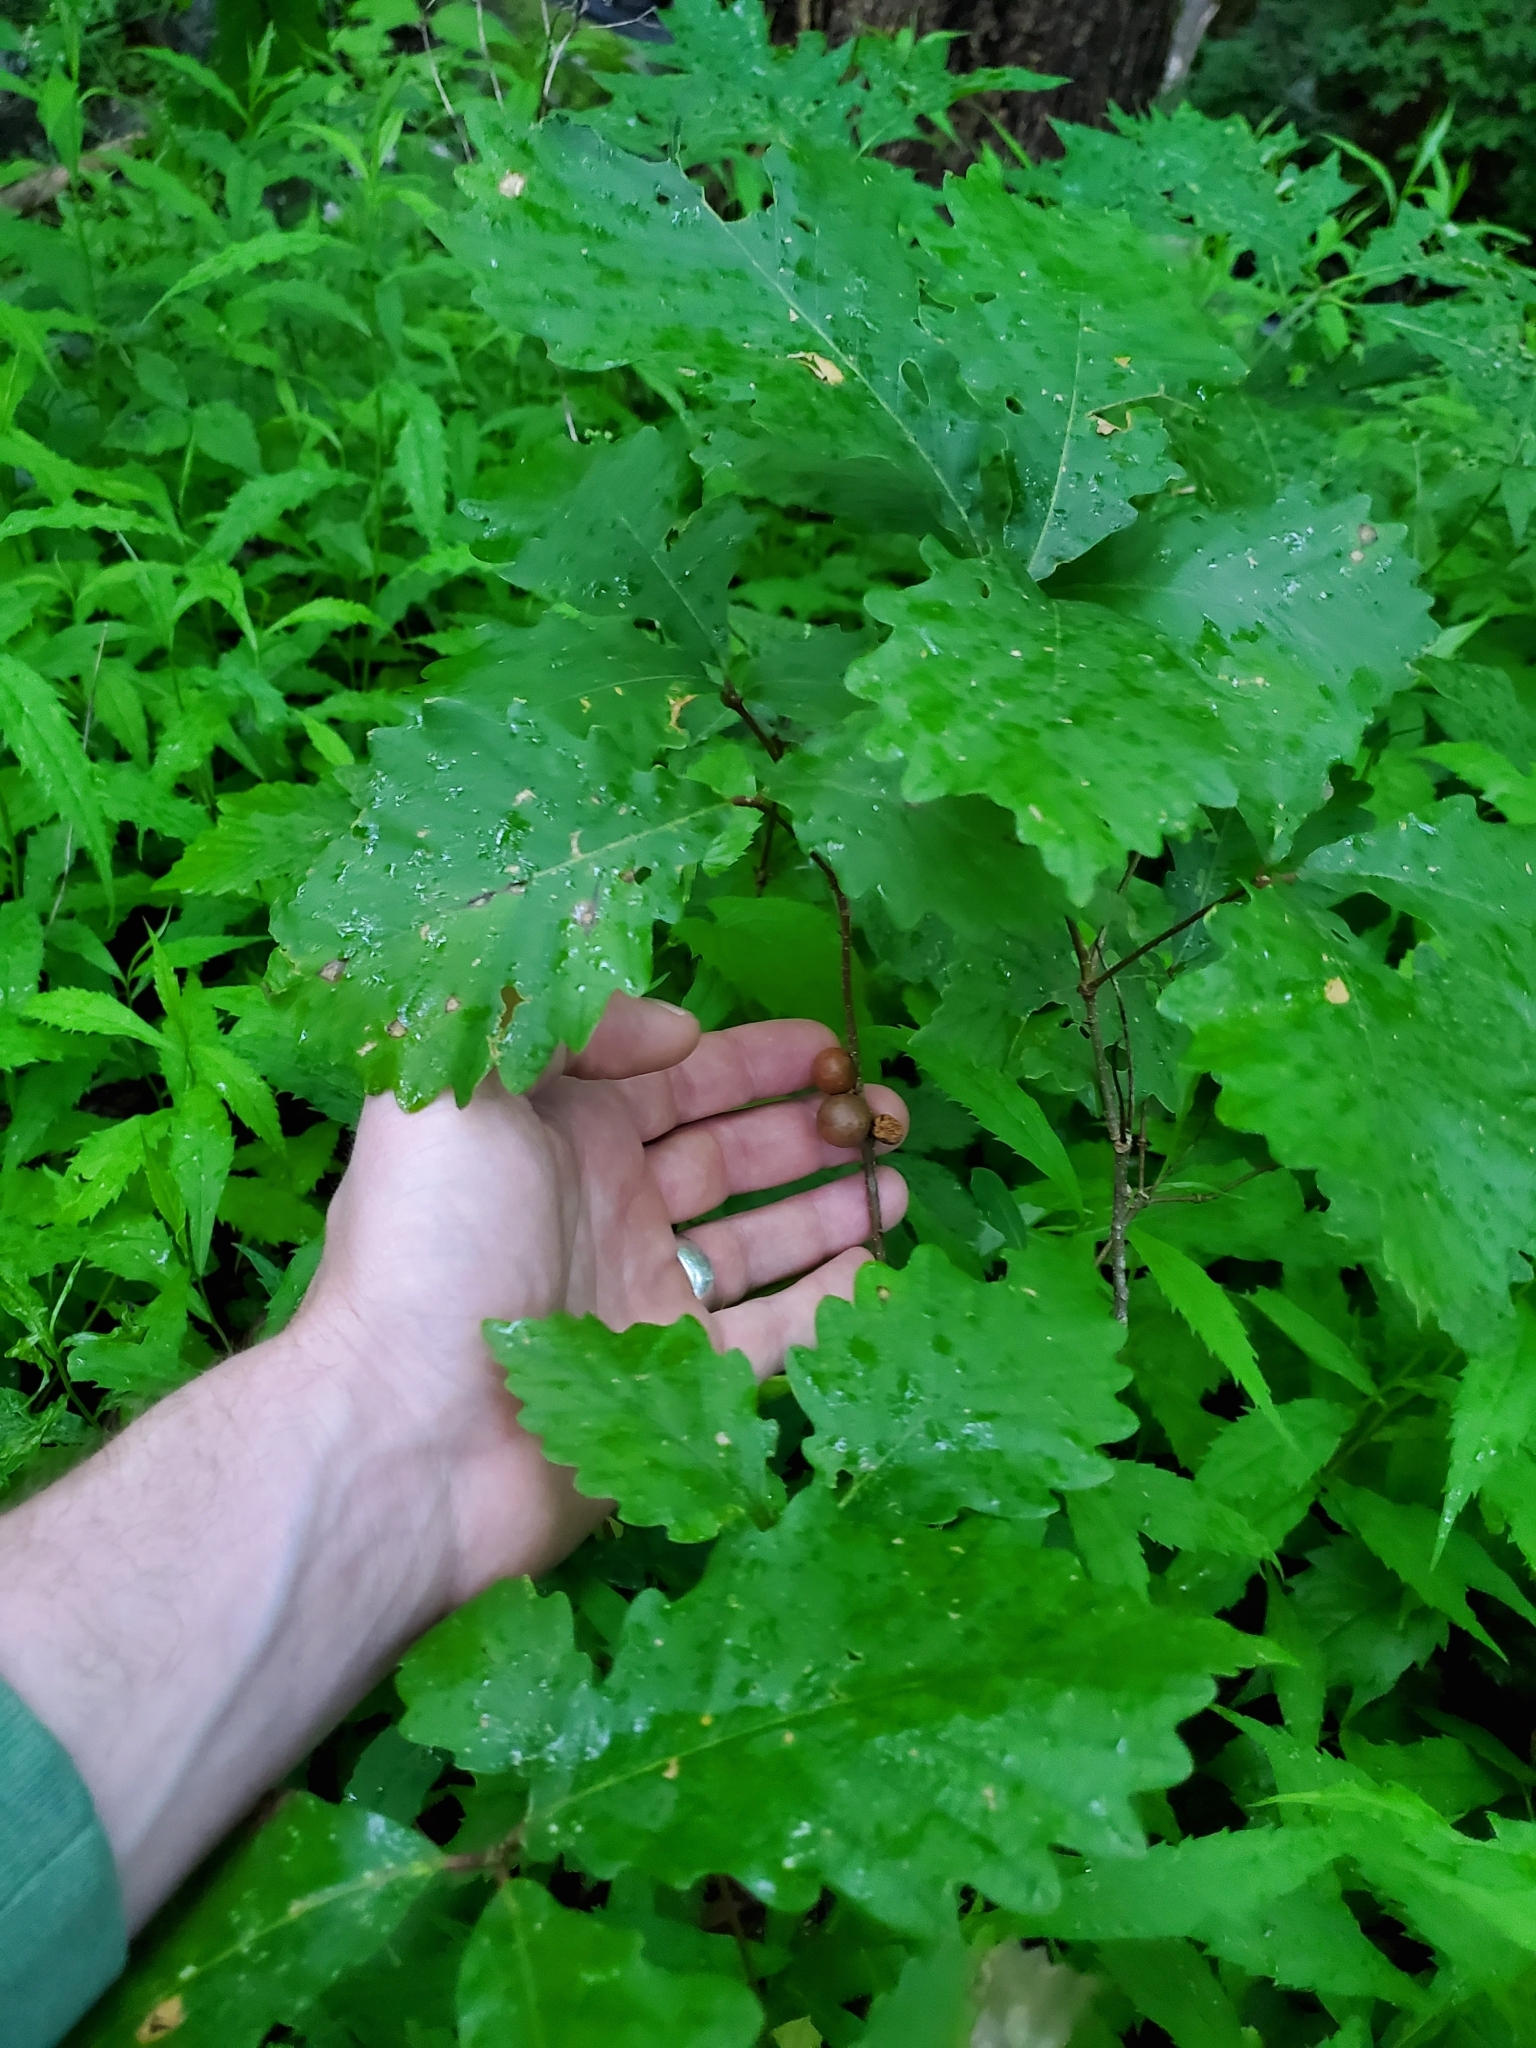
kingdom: Animalia
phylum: Arthropoda
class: Insecta
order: Hymenoptera
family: Cynipidae
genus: Disholcaspis
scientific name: Disholcaspis quercusglobulus
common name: Round bullet gall wasp
